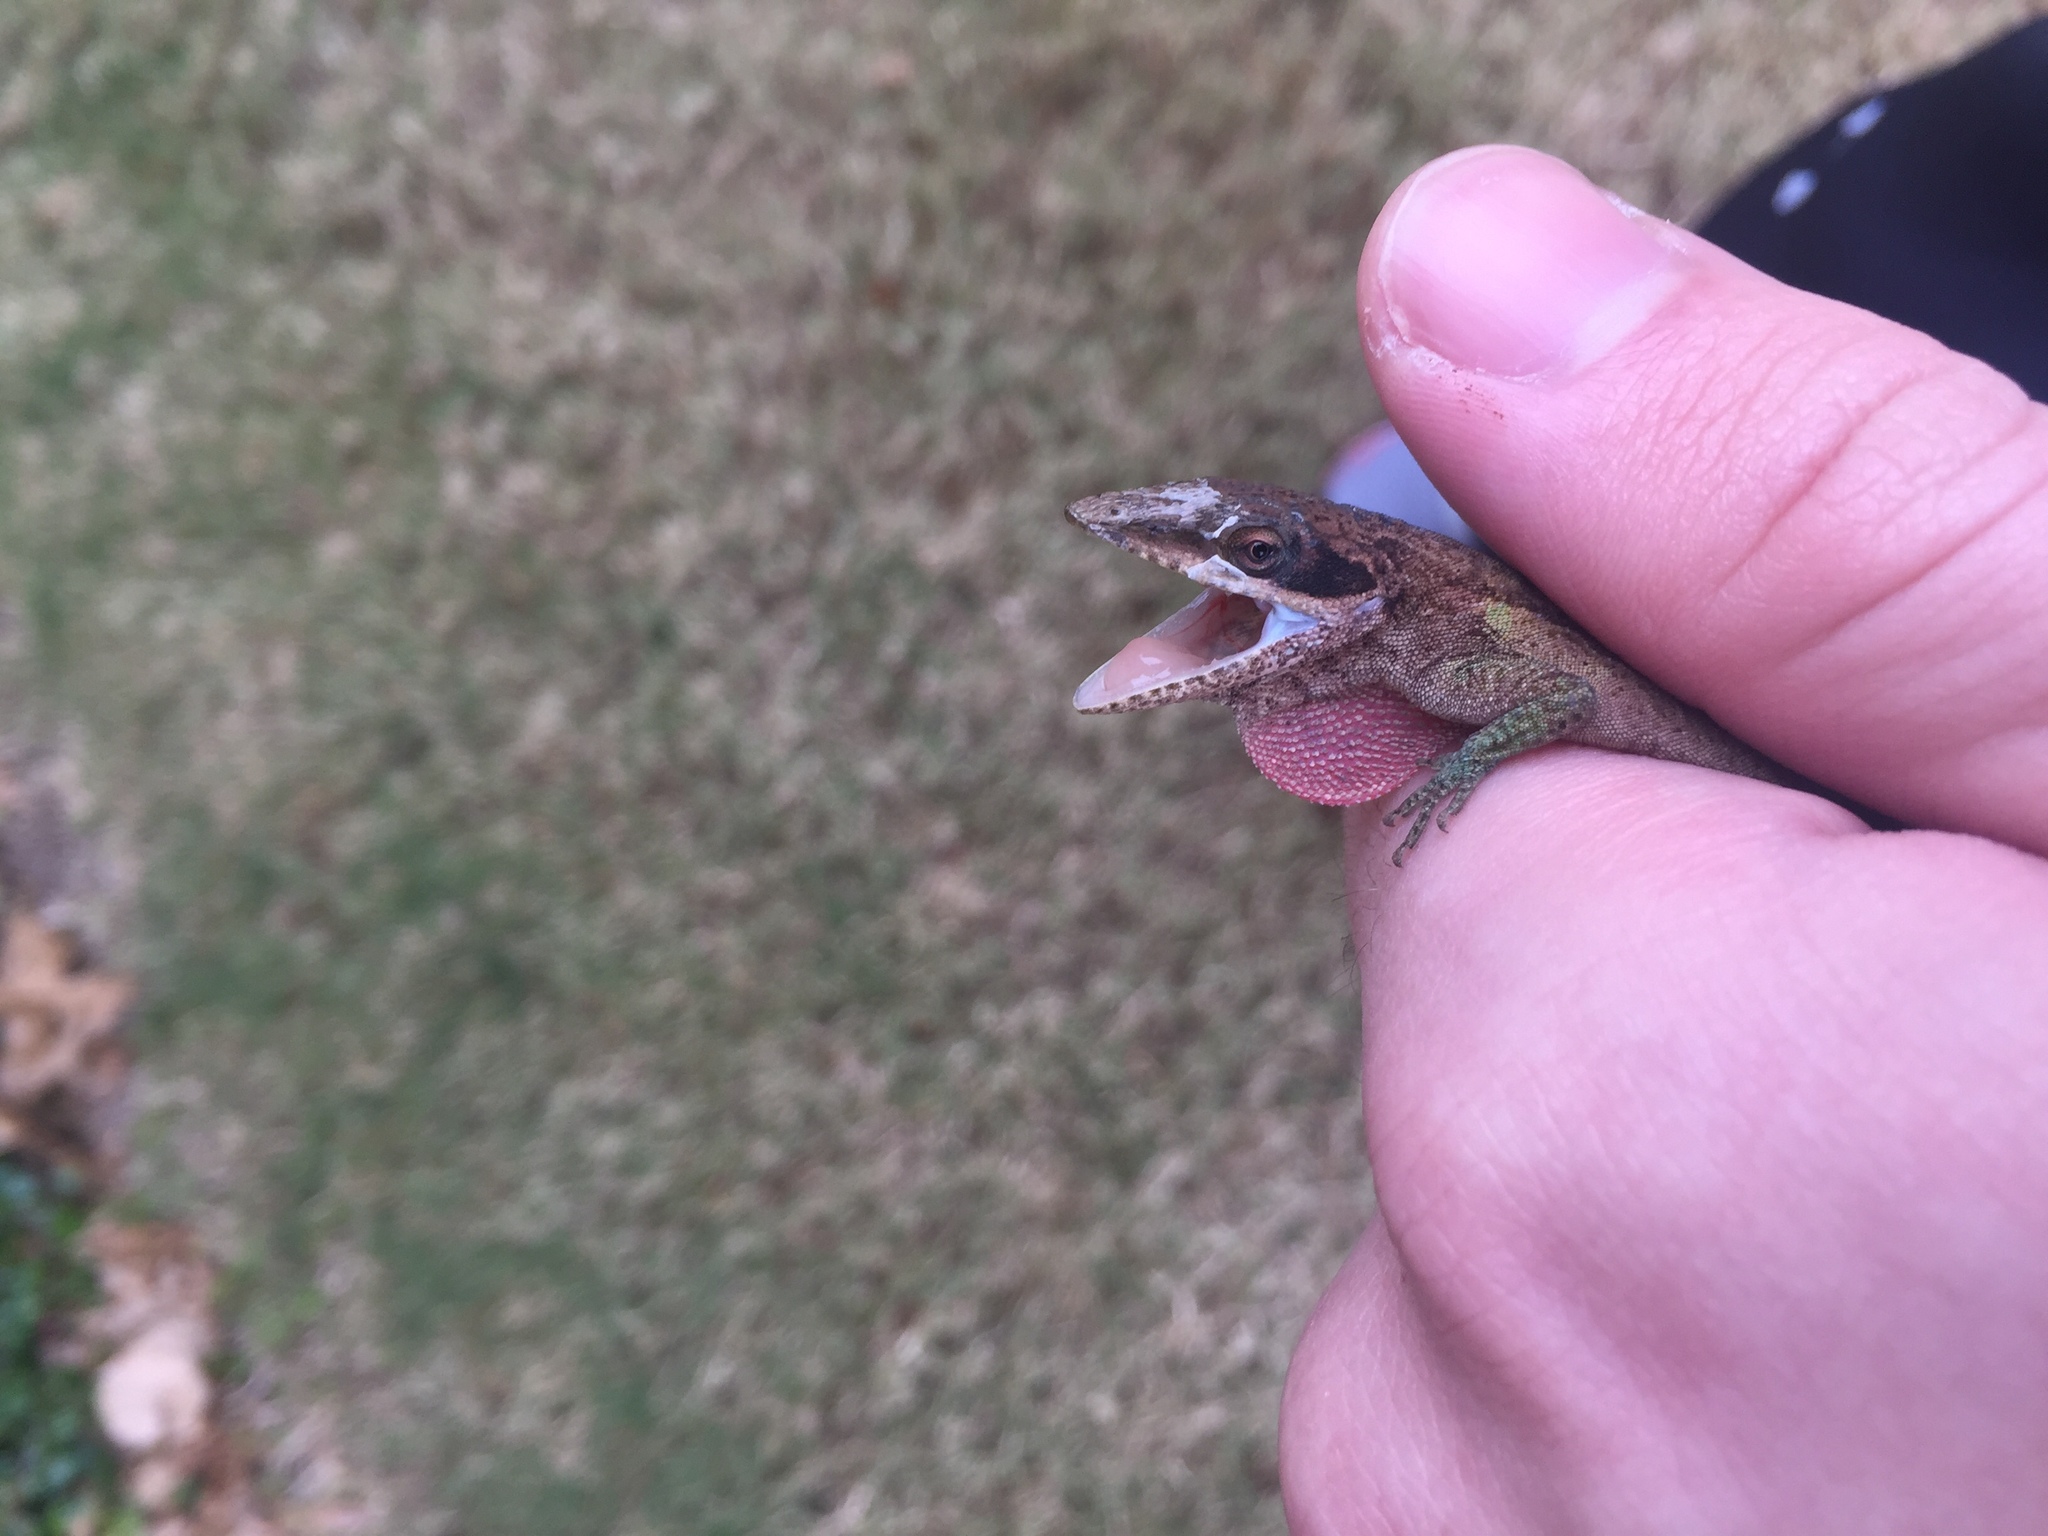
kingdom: Animalia
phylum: Chordata
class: Squamata
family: Dactyloidae
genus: Anolis
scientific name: Anolis carolinensis
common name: Green anole
